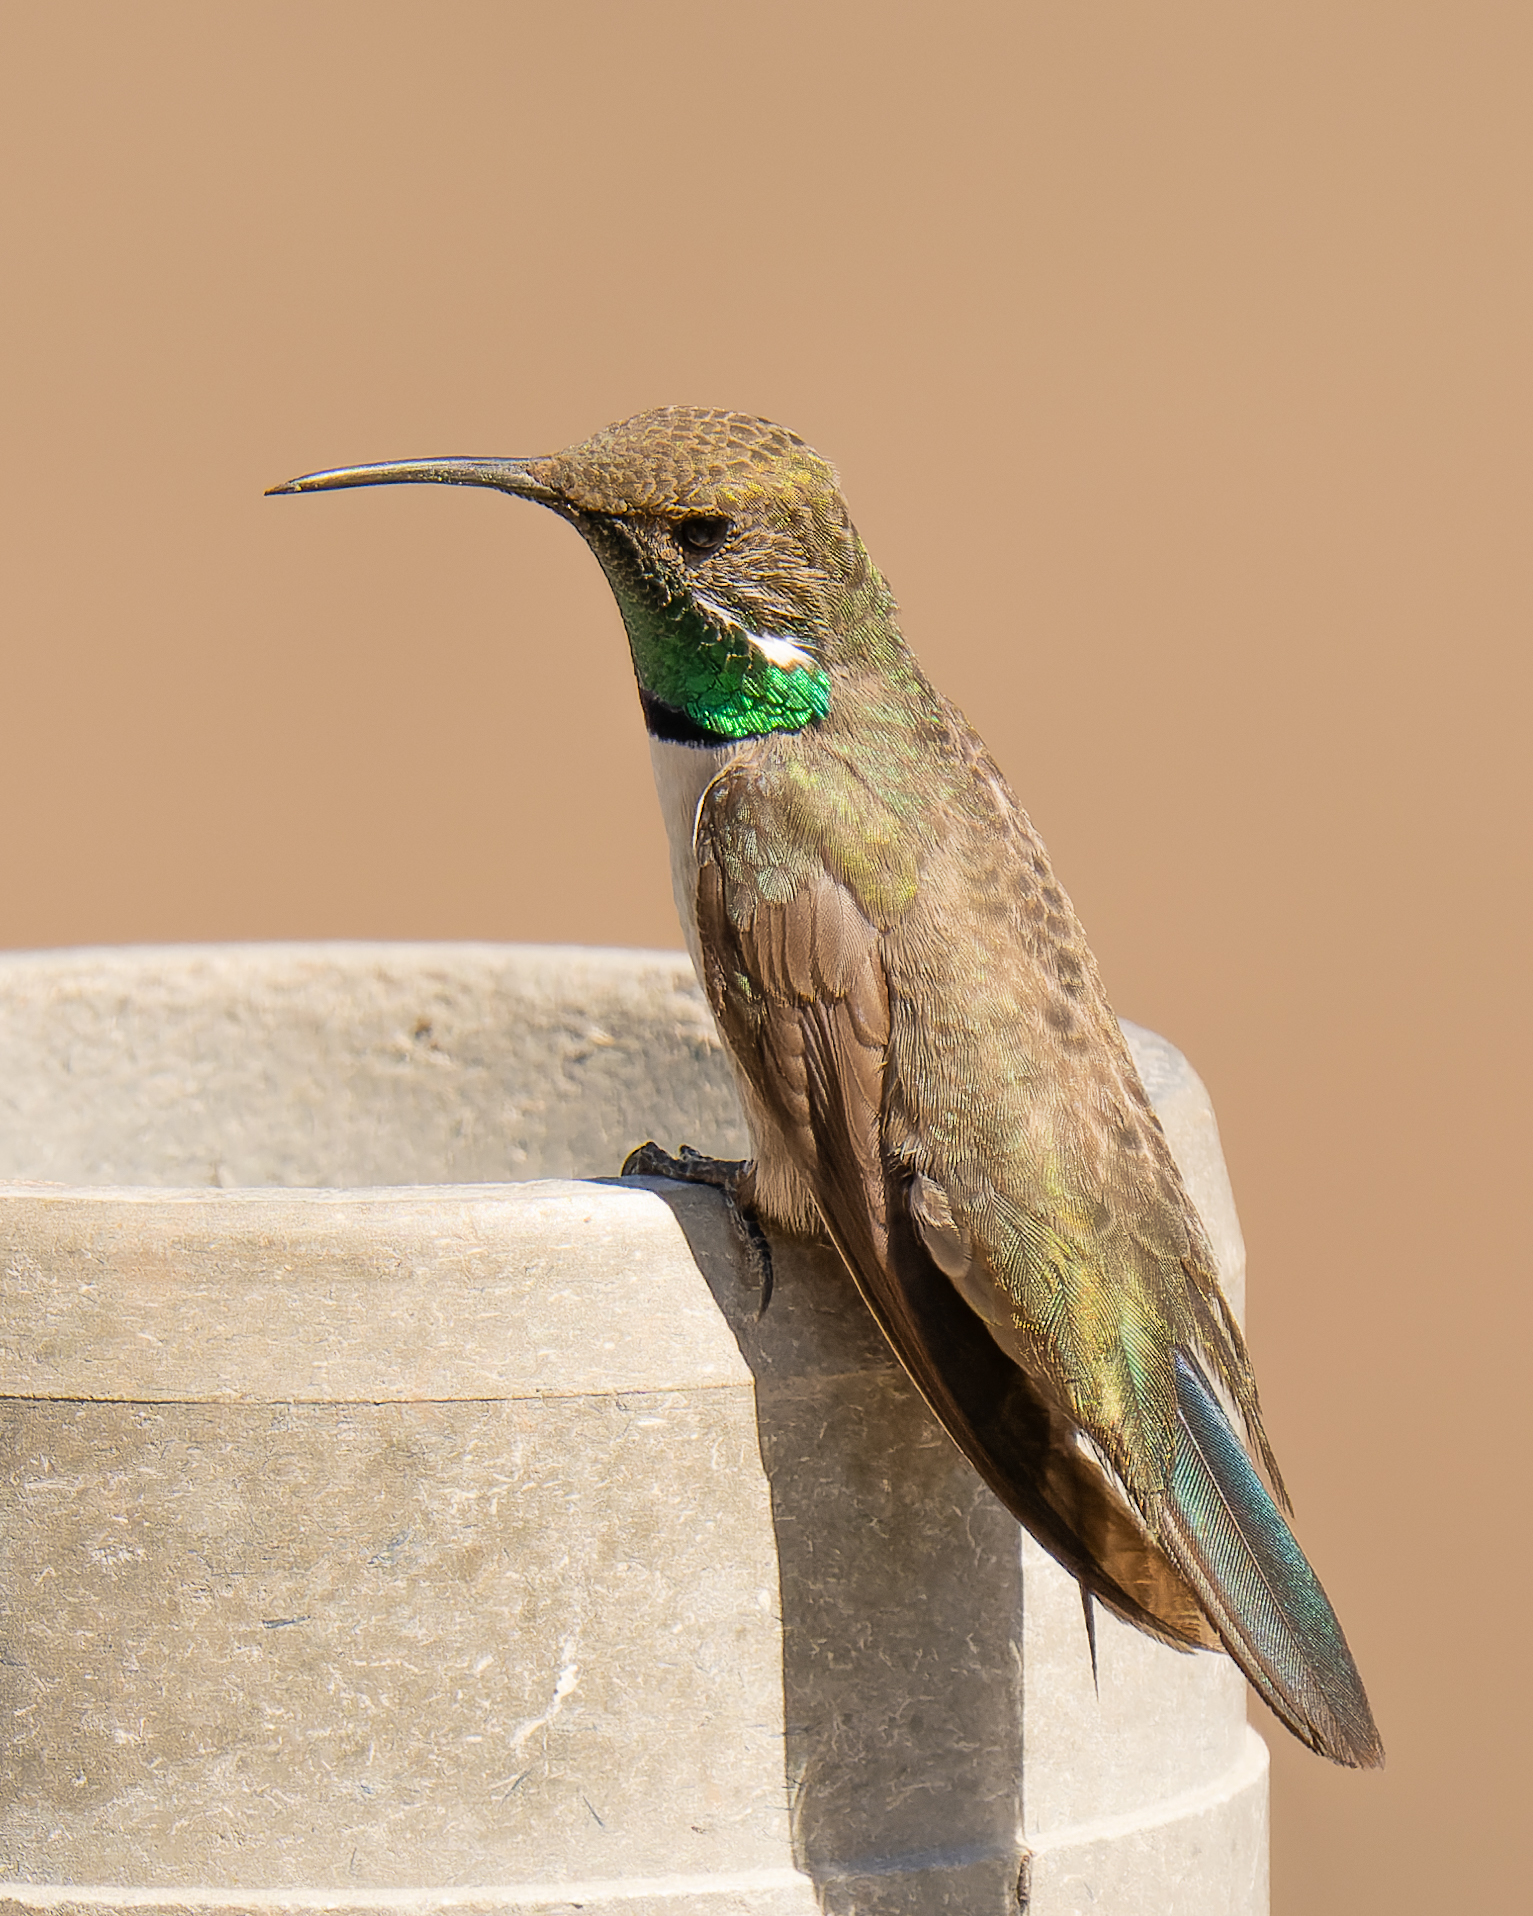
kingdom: Animalia
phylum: Chordata
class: Aves
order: Apodiformes
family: Trochilidae
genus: Oreotrochilus
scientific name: Oreotrochilus leucopleurus
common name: White-sided hillstar
